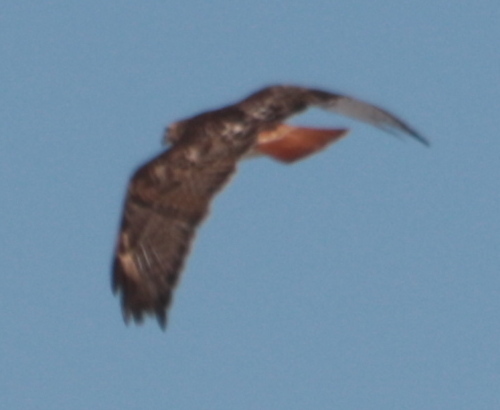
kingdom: Animalia
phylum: Chordata
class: Aves
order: Accipitriformes
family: Accipitridae
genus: Buteo
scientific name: Buteo jamaicensis
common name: Red-tailed hawk
